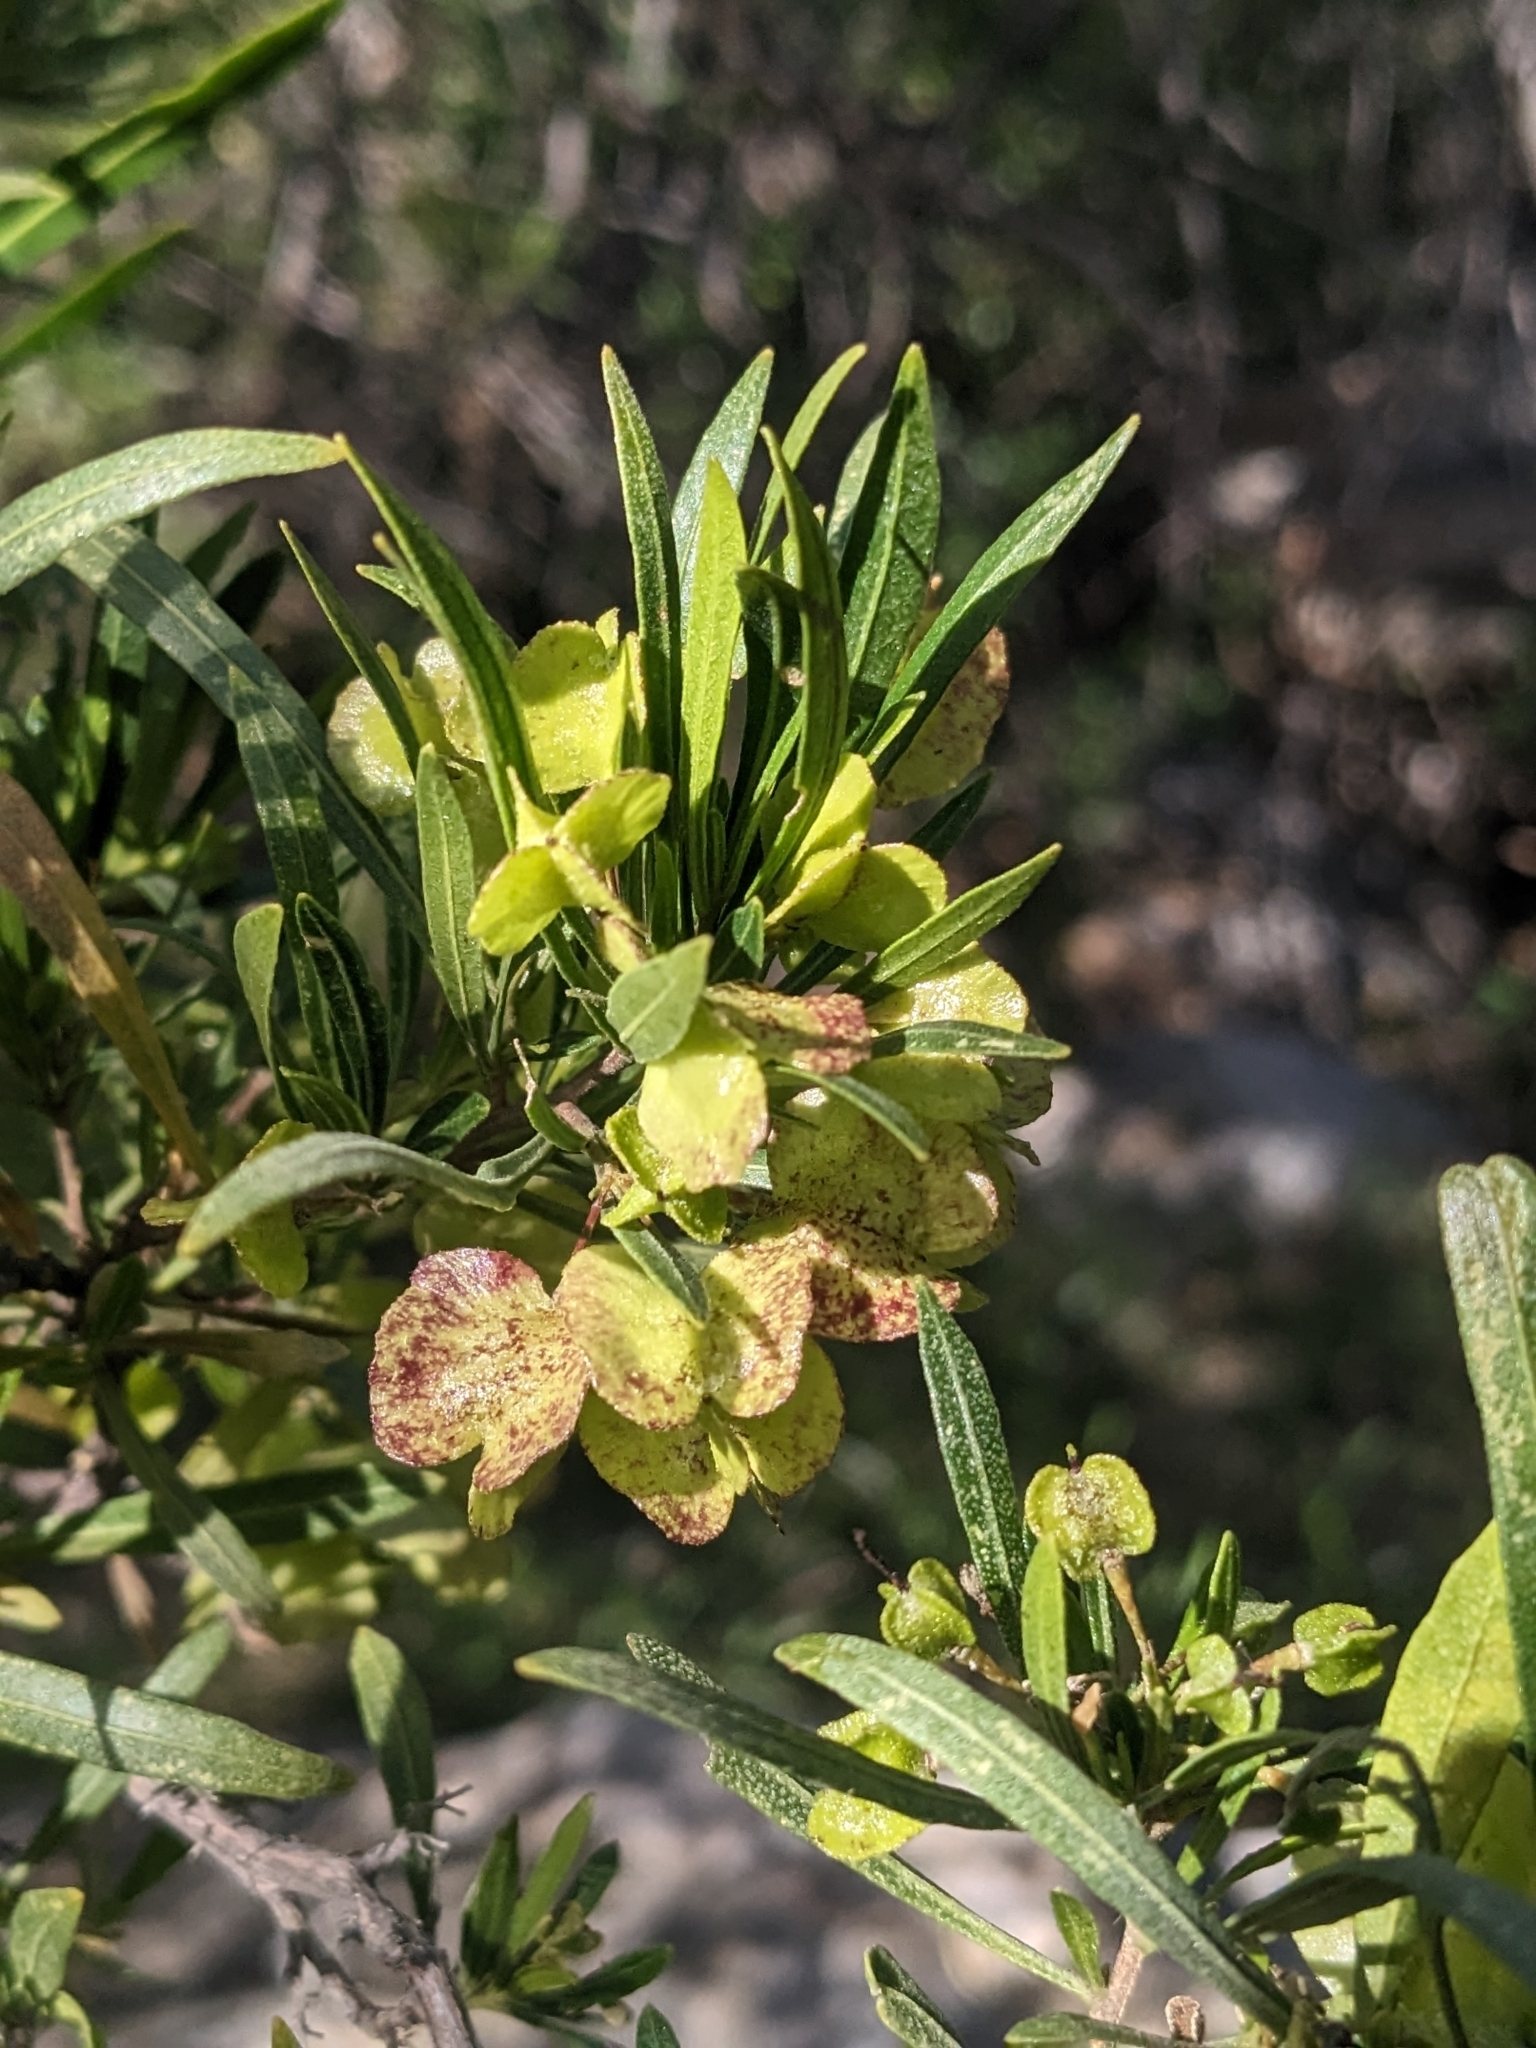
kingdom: Plantae
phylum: Tracheophyta
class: Magnoliopsida
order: Sapindales
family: Sapindaceae
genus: Dodonaea
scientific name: Dodonaea viscosa
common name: Hopbush
